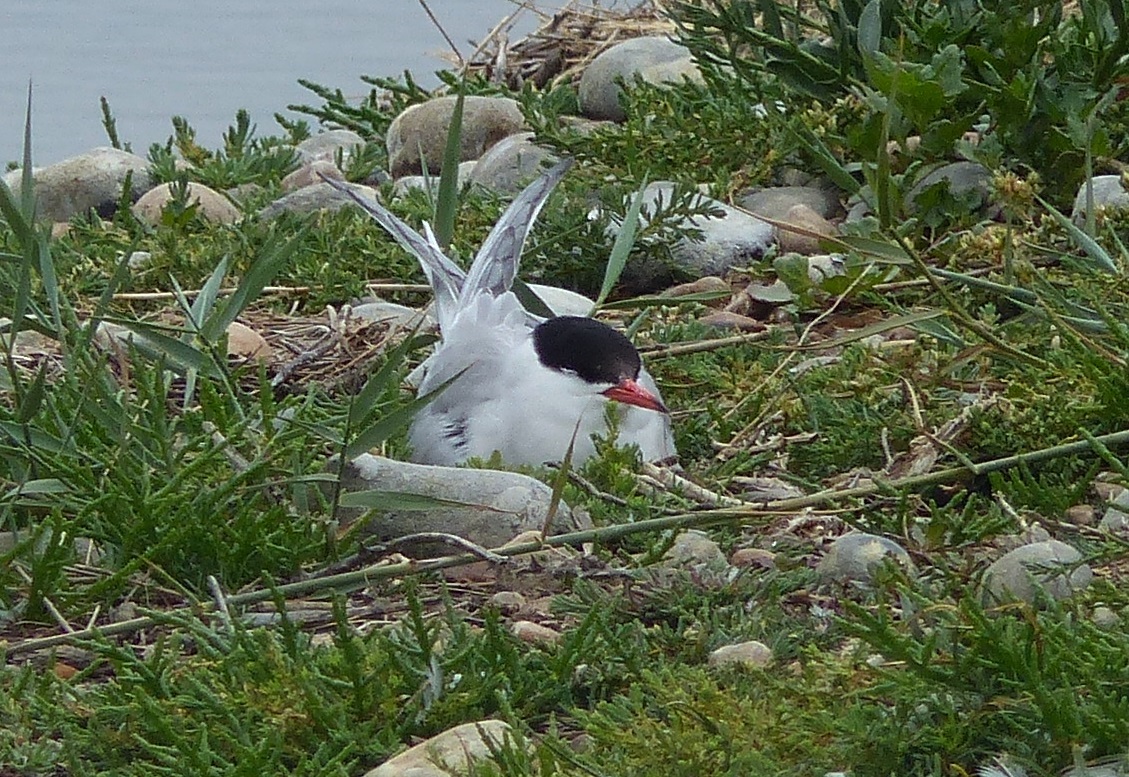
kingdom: Animalia
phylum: Chordata
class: Aves
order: Charadriiformes
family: Laridae
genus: Sterna
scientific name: Sterna hirundo
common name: Common tern
